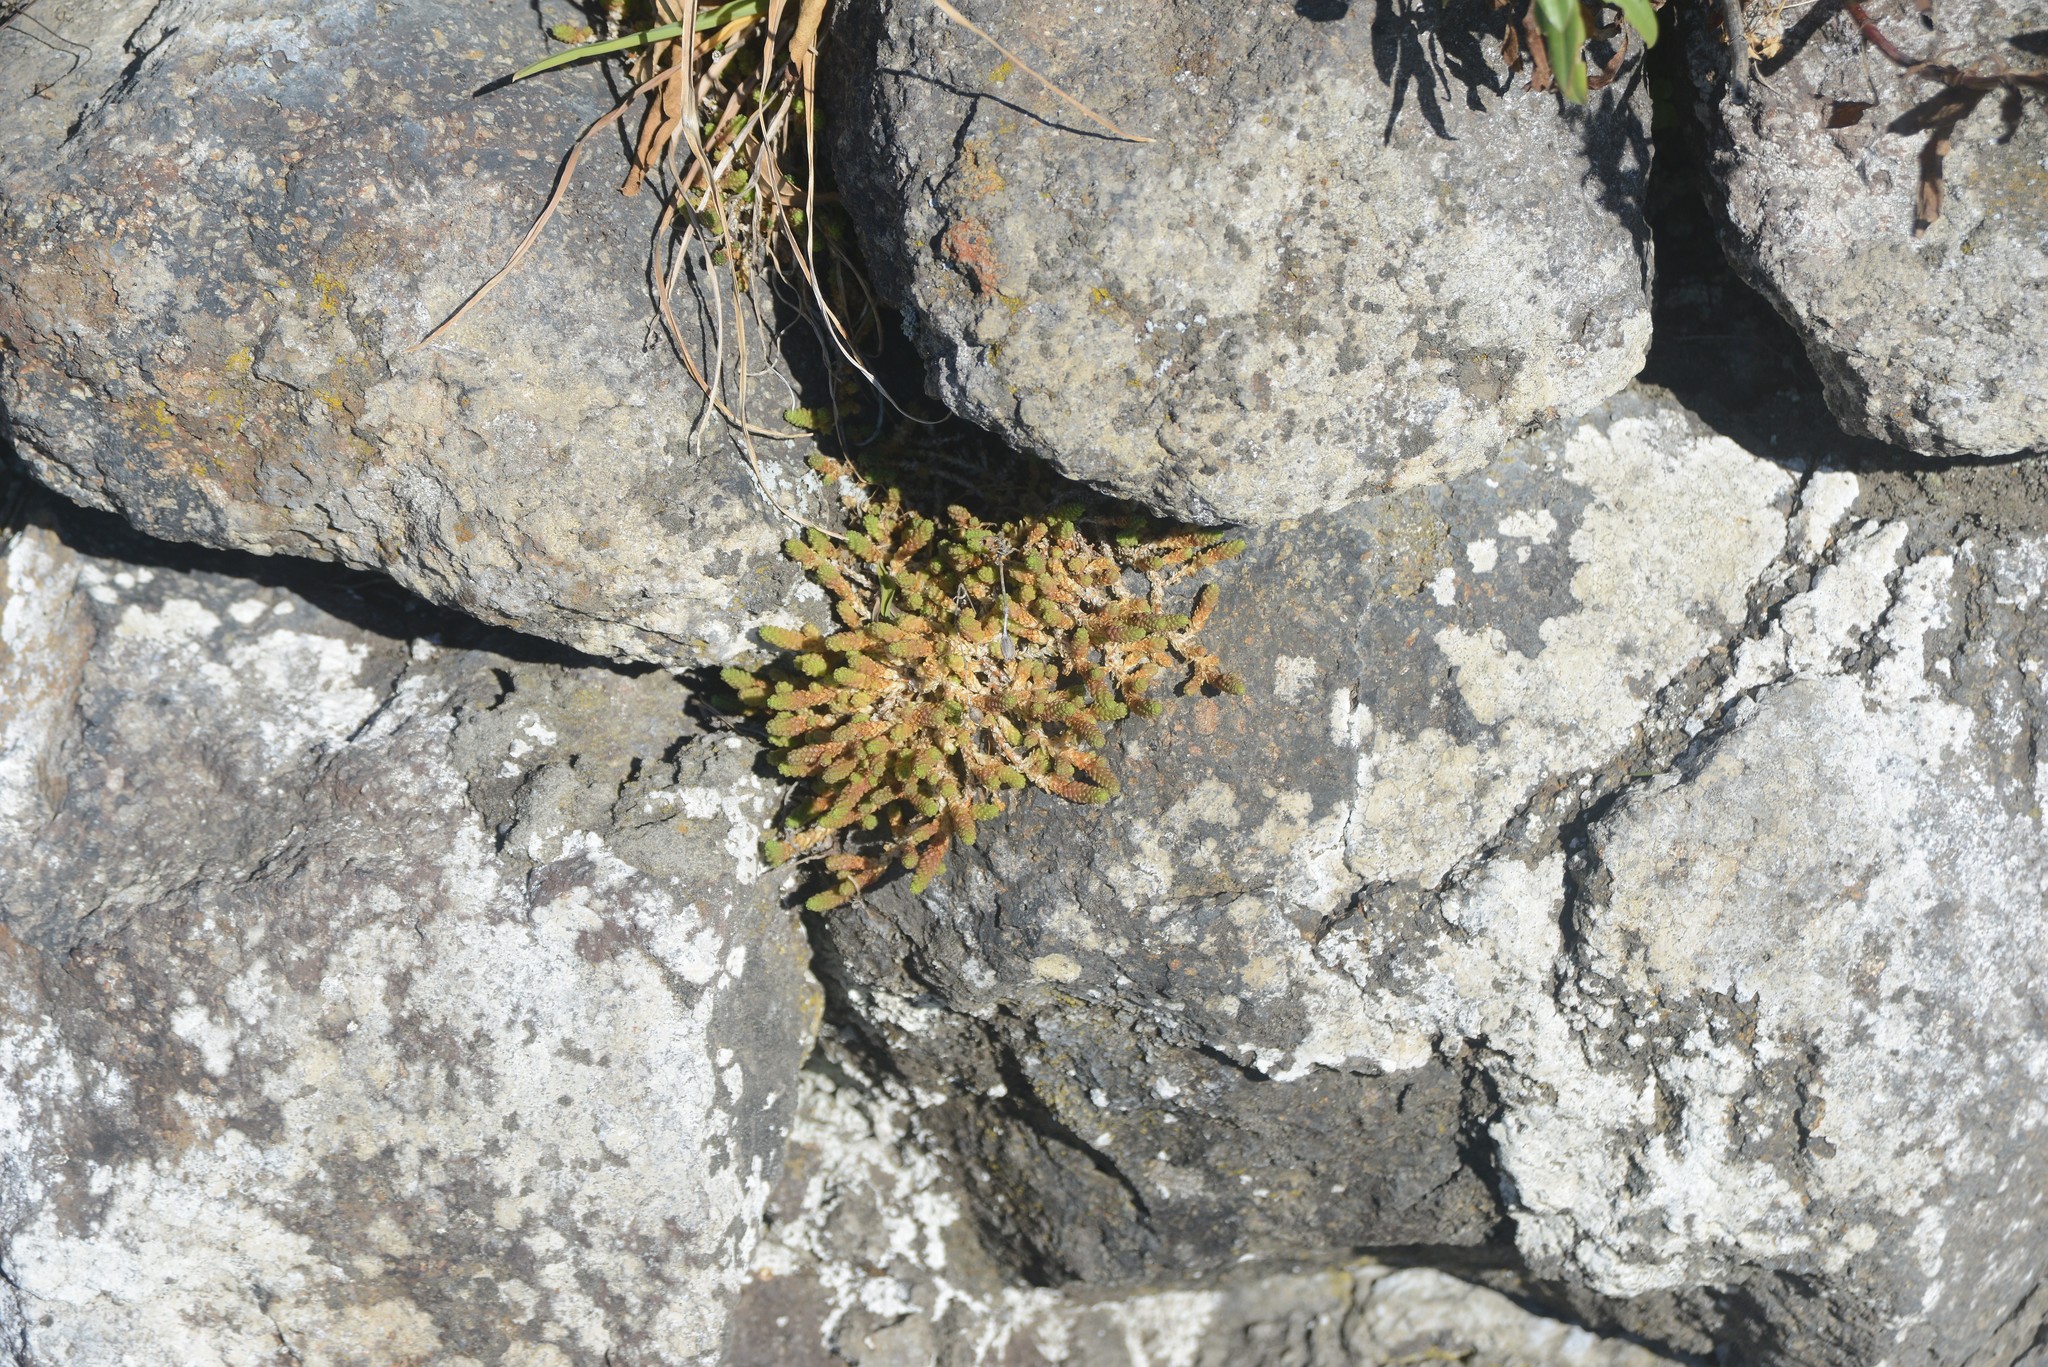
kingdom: Plantae
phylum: Tracheophyta
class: Magnoliopsida
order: Saxifragales
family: Crassulaceae
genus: Sedum
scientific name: Sedum acre
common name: Biting stonecrop
